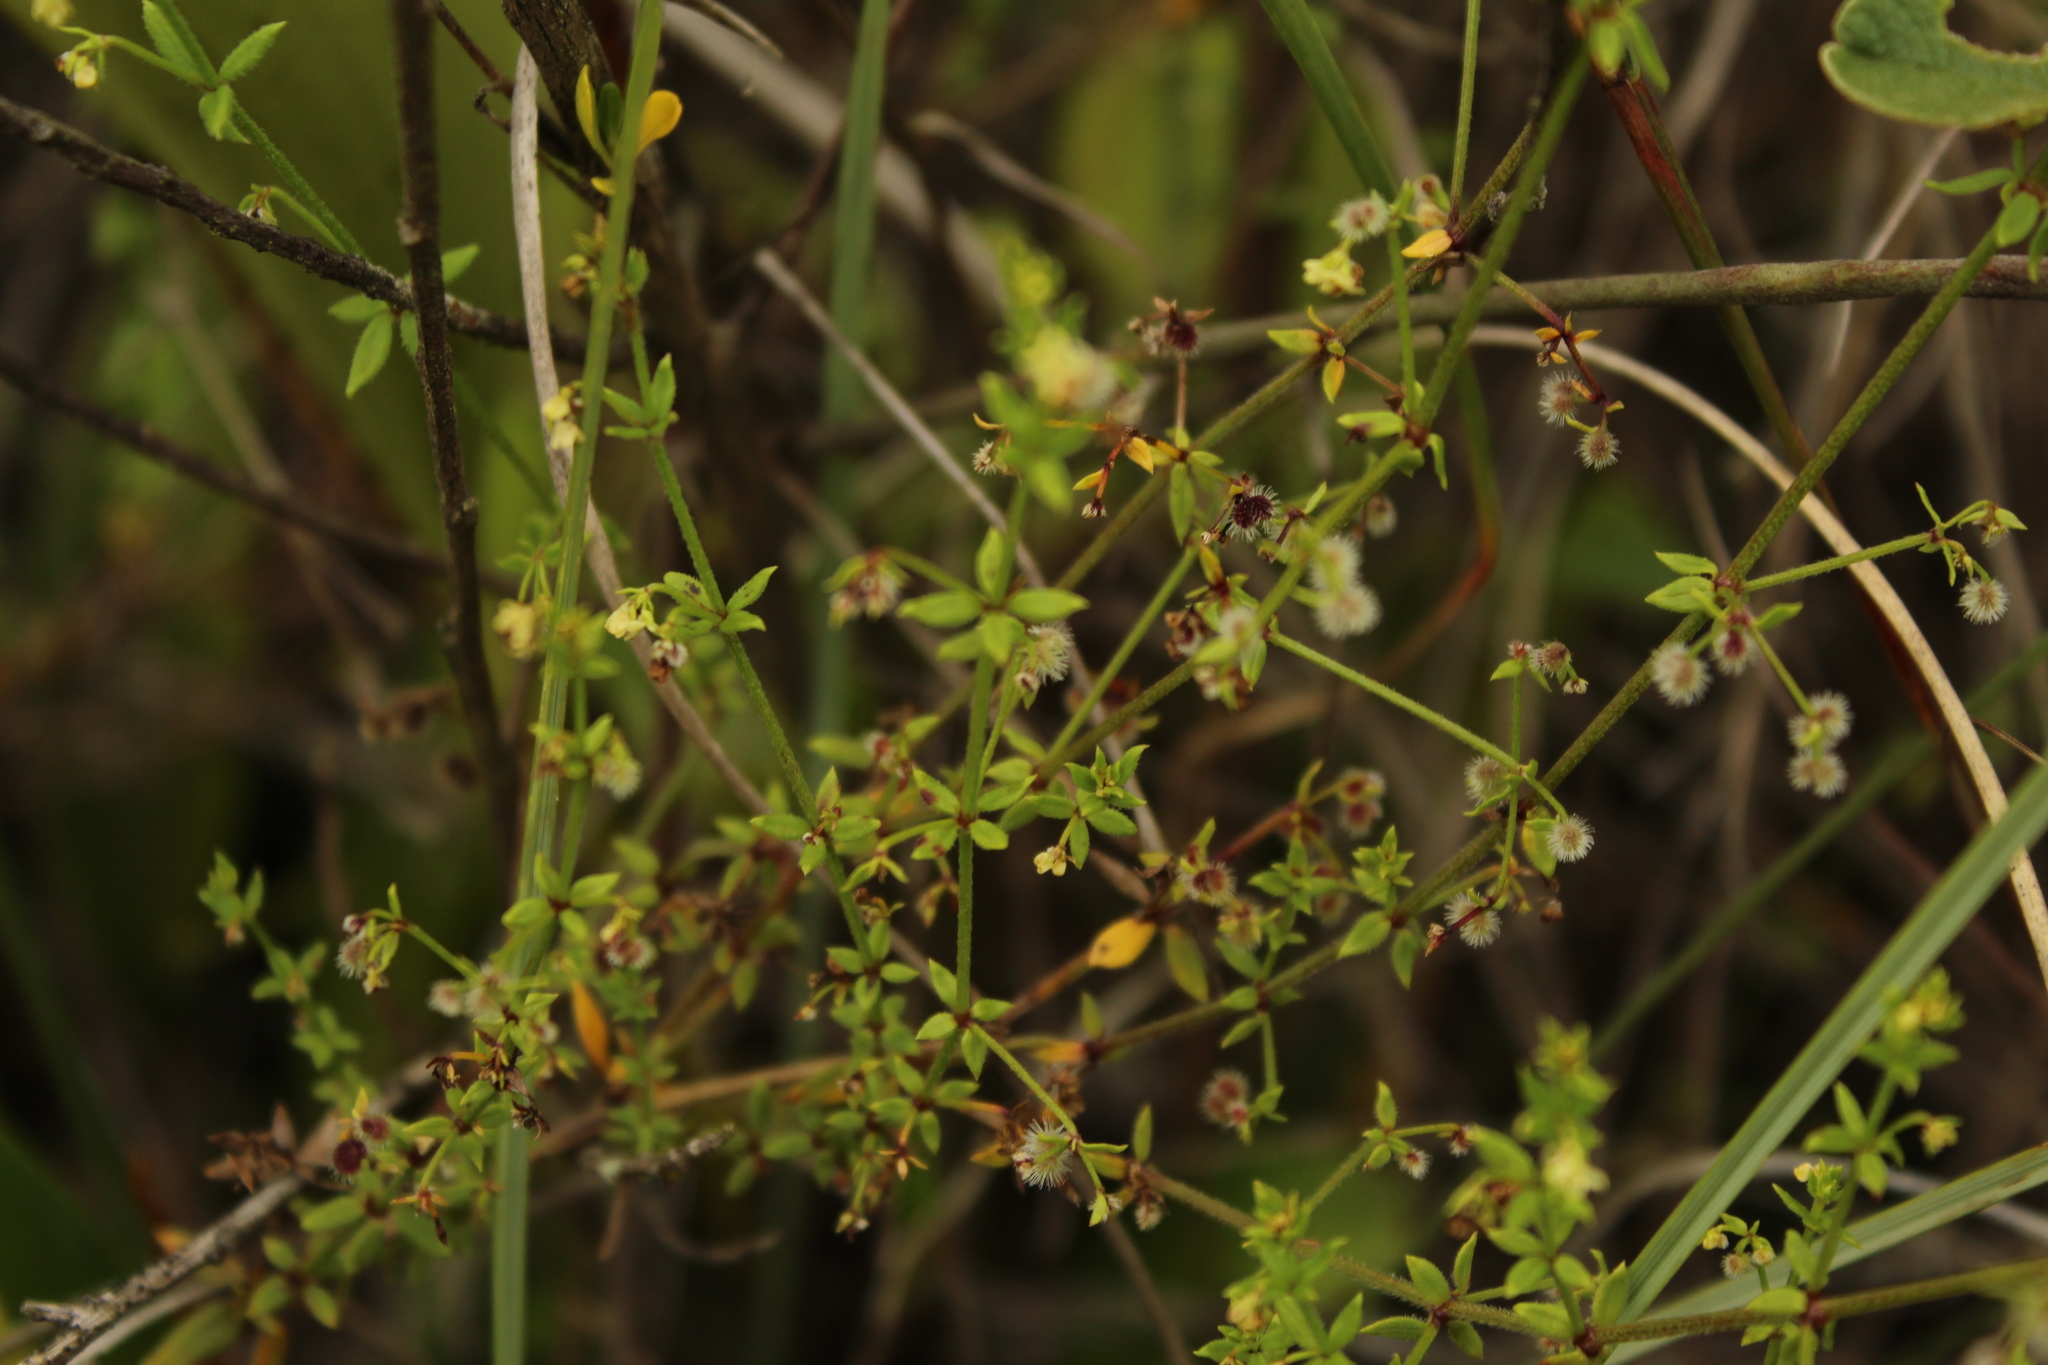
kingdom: Plantae
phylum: Tracheophyta
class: Magnoliopsida
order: Gentianales
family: Rubiaceae
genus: Galium
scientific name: Galium canescens
